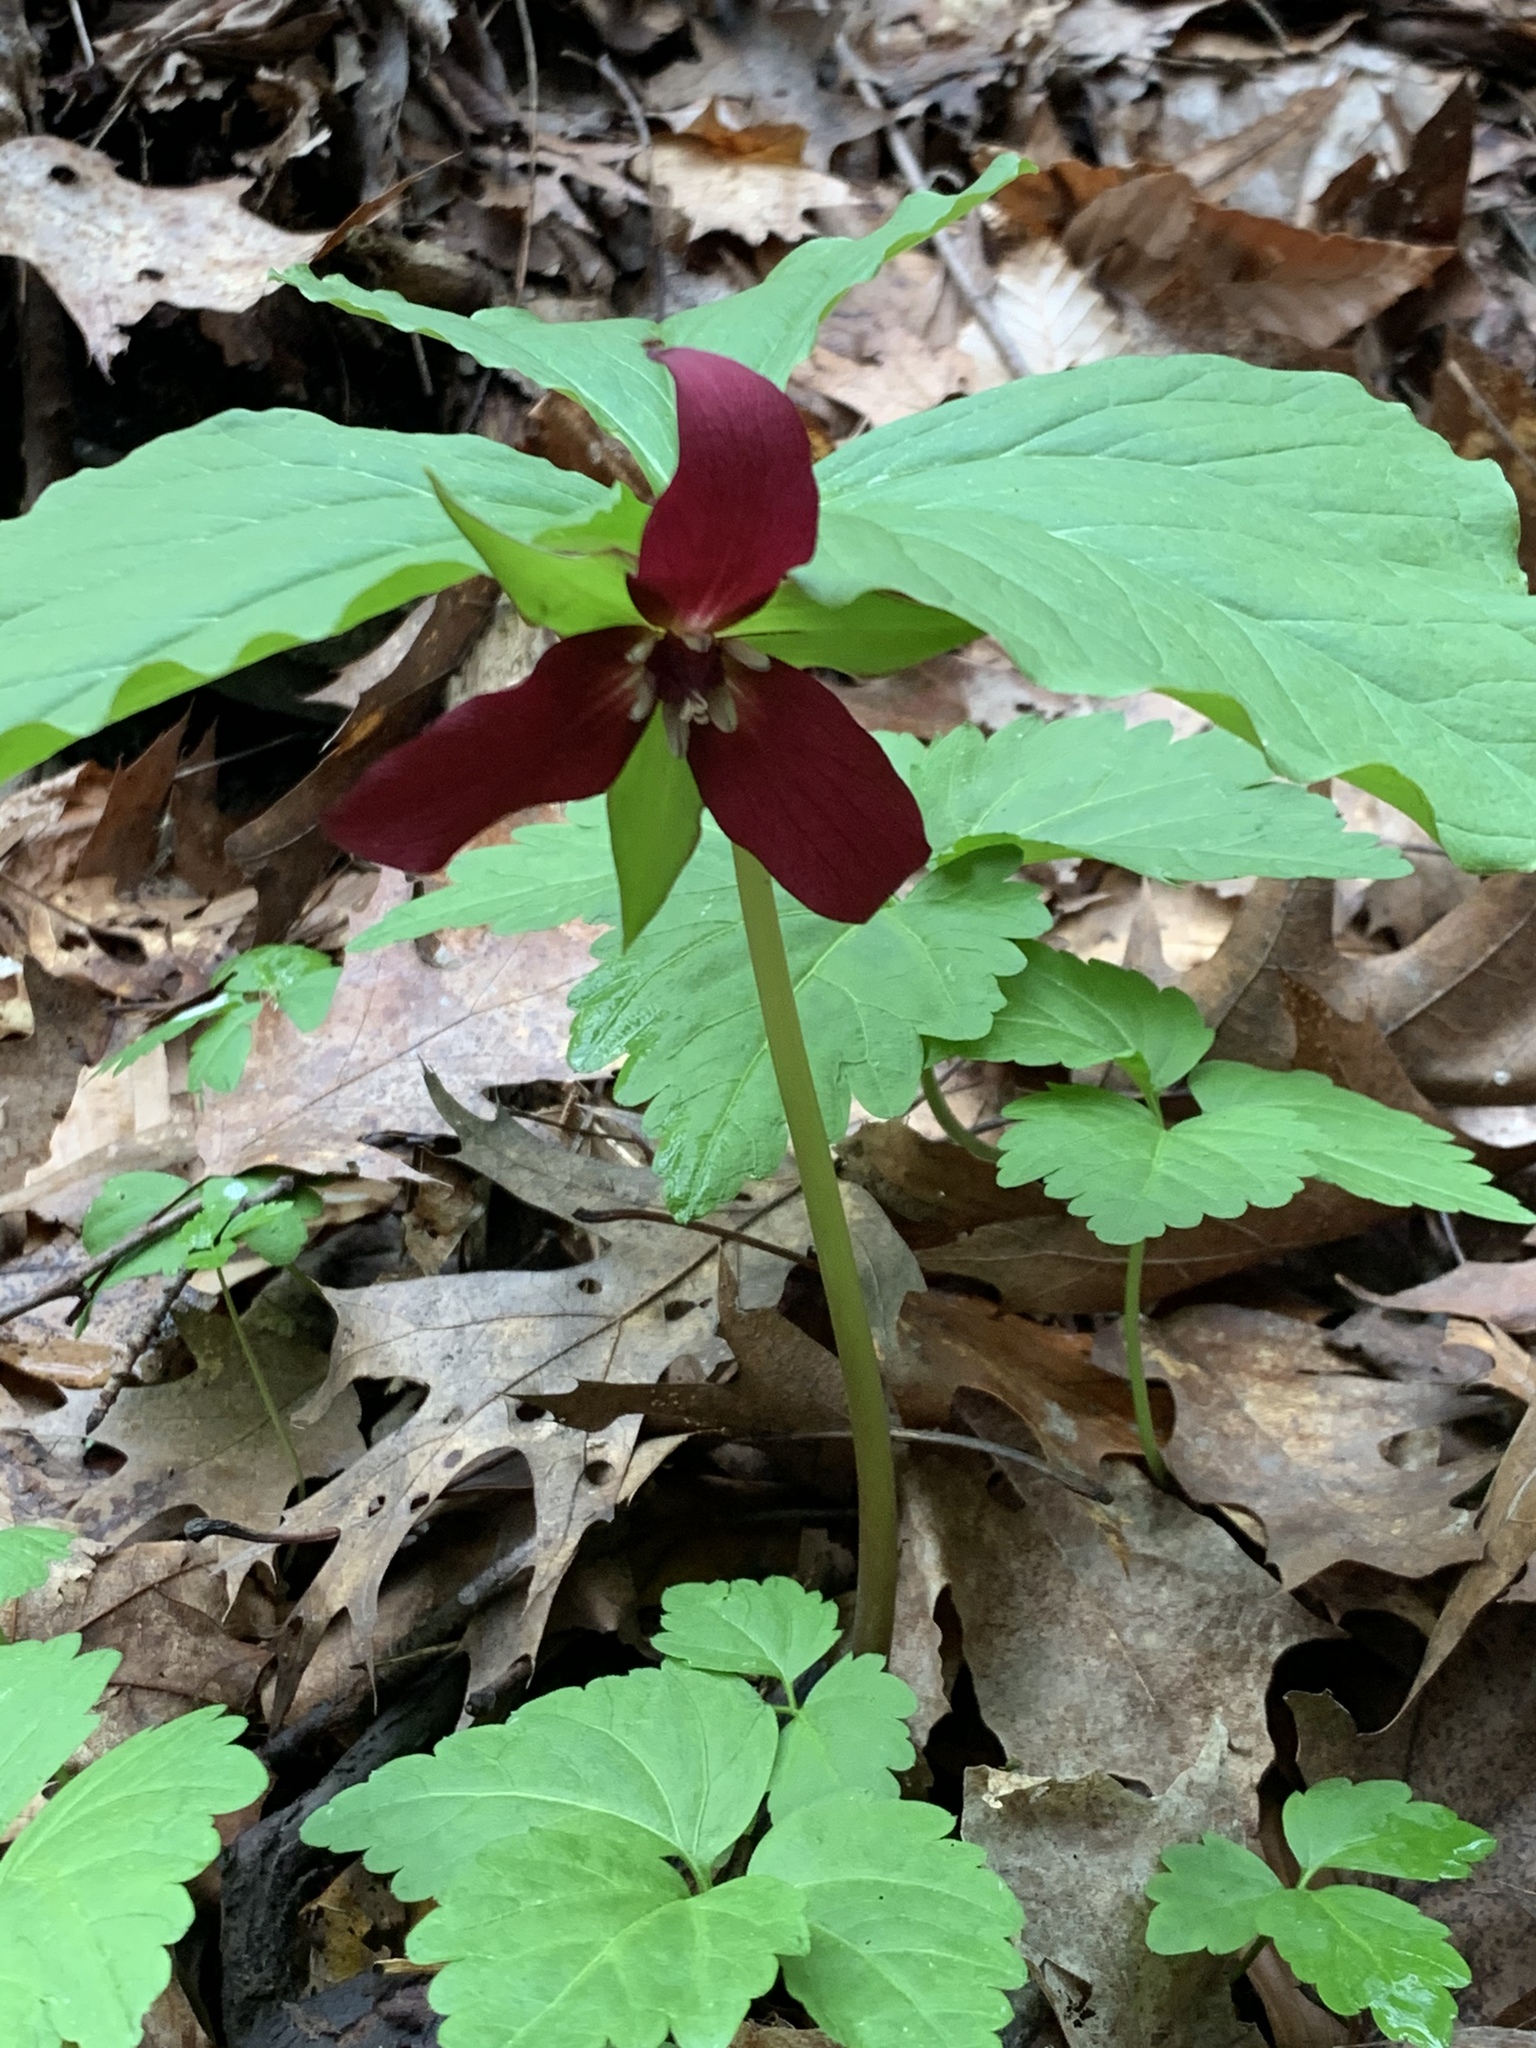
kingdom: Plantae
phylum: Tracheophyta
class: Liliopsida
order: Liliales
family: Melanthiaceae
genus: Trillium
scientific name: Trillium erectum
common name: Purple trillium
